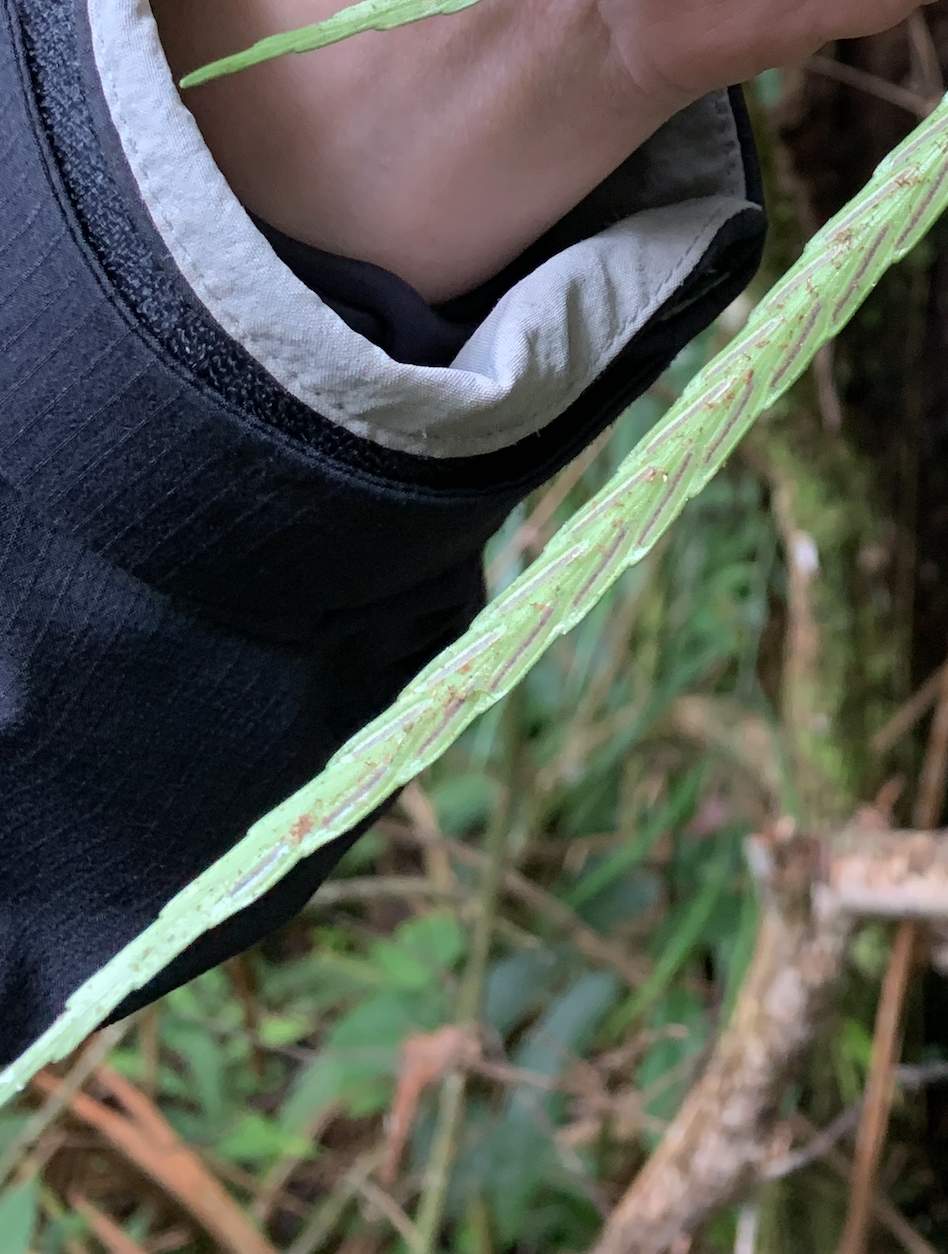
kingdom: Plantae
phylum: Tracheophyta
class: Polypodiopsida
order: Polypodiales
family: Aspleniaceae
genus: Asplenium
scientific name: Asplenium pachychlamys
